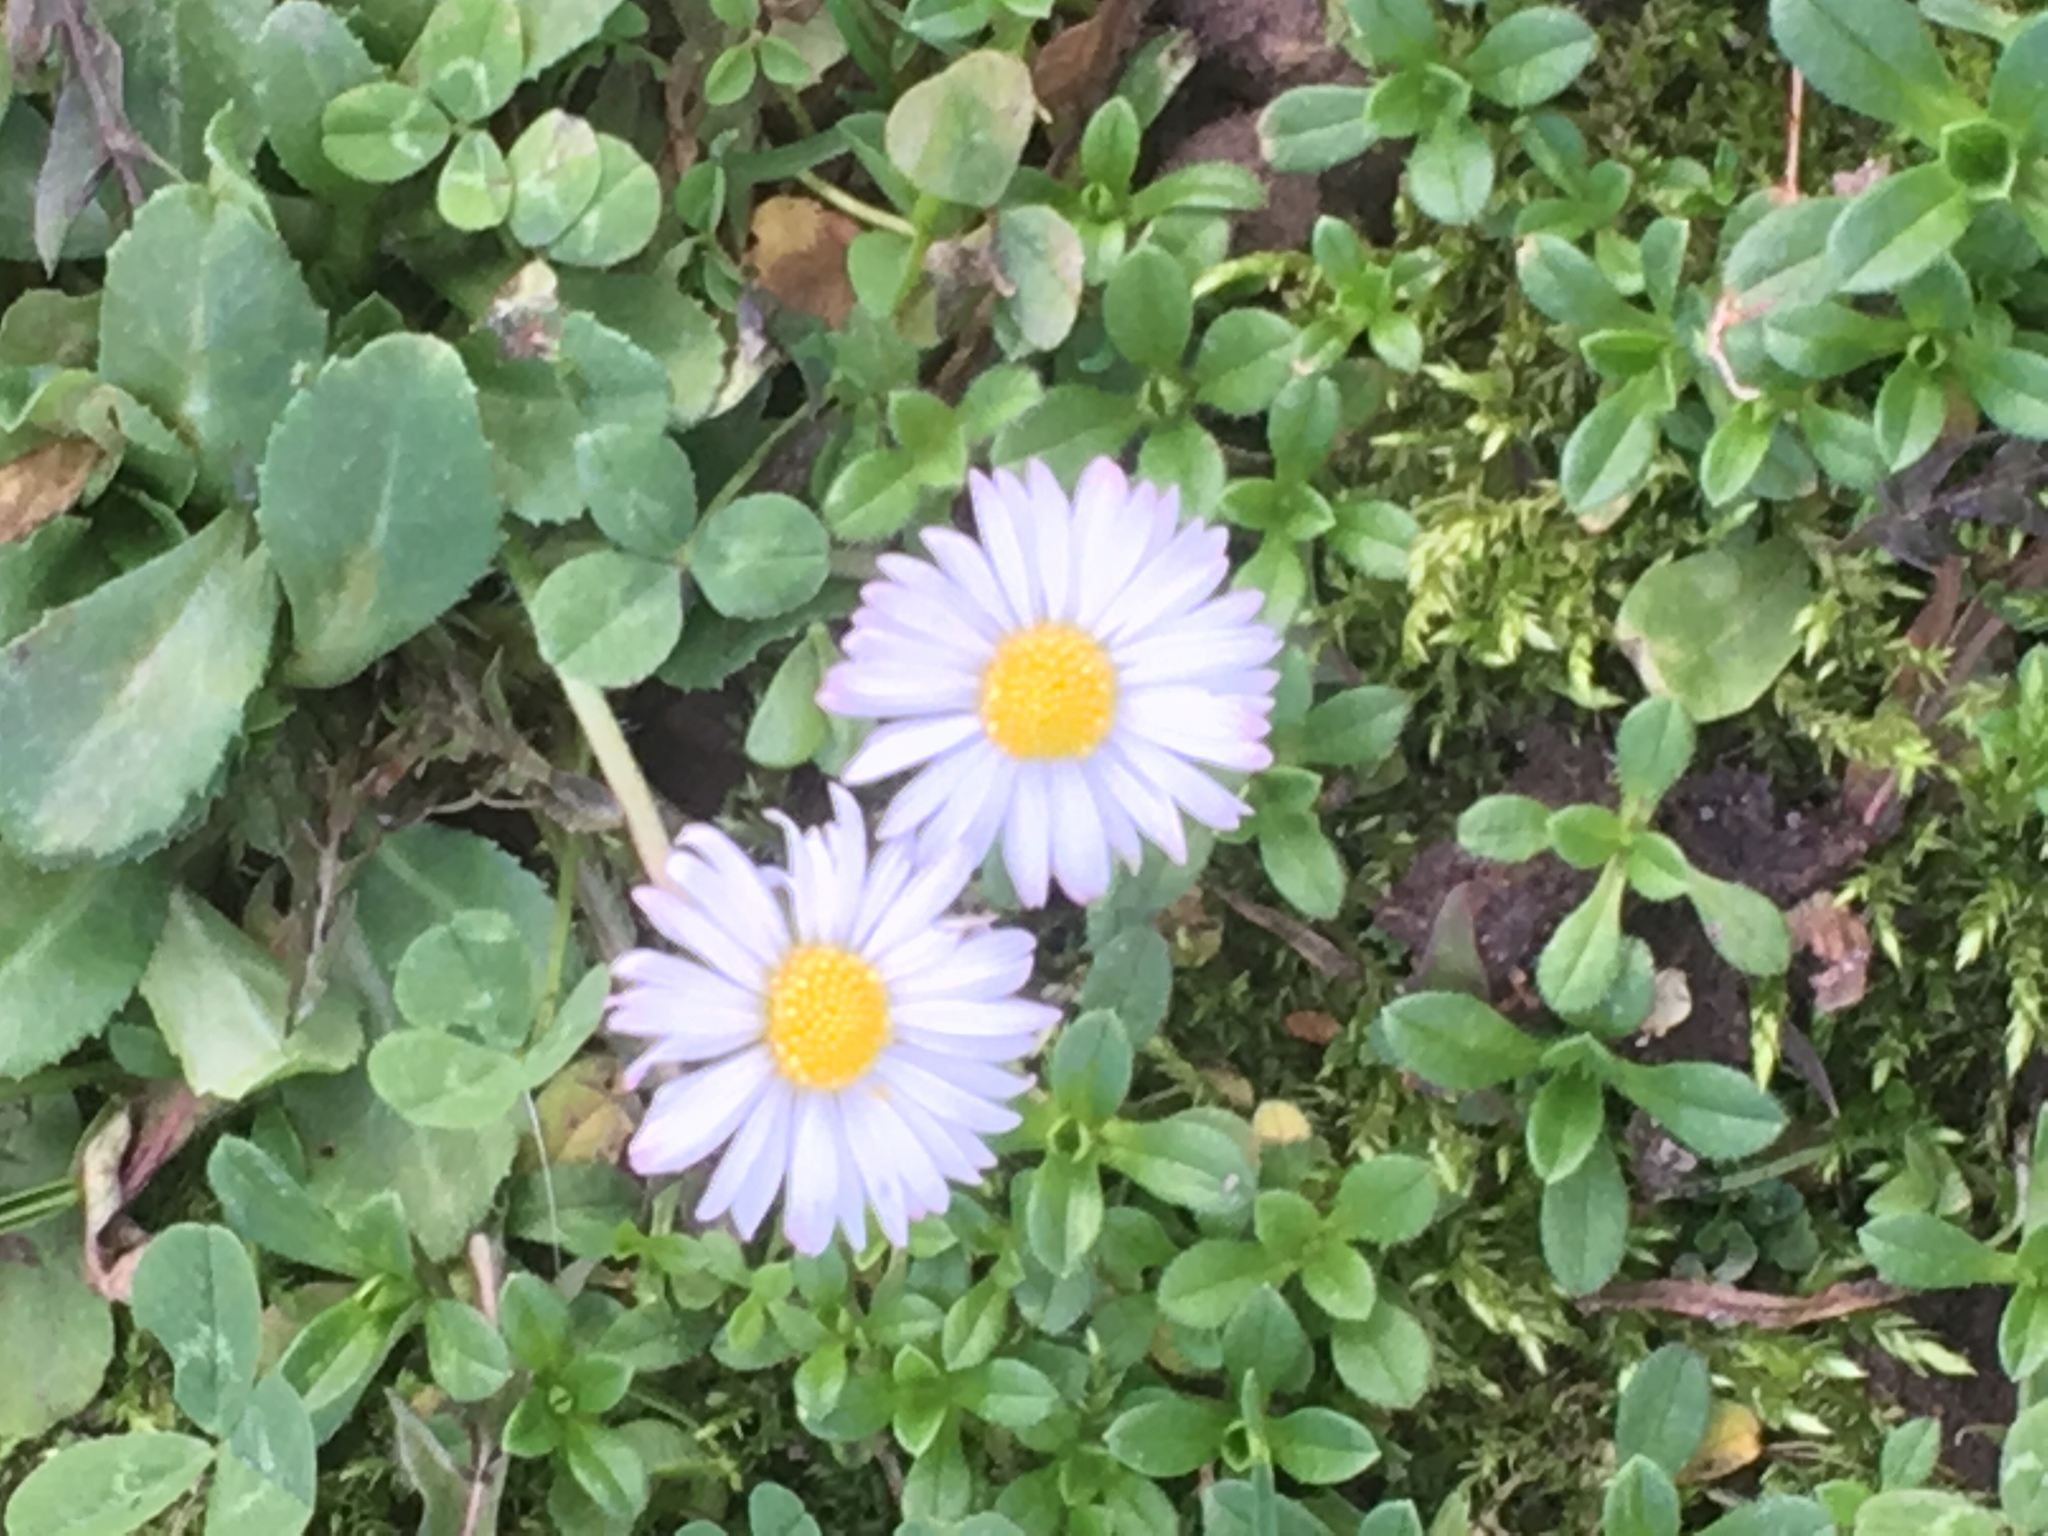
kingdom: Plantae
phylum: Tracheophyta
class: Magnoliopsida
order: Asterales
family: Asteraceae
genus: Bellis
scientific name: Bellis perennis
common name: Lawndaisy
